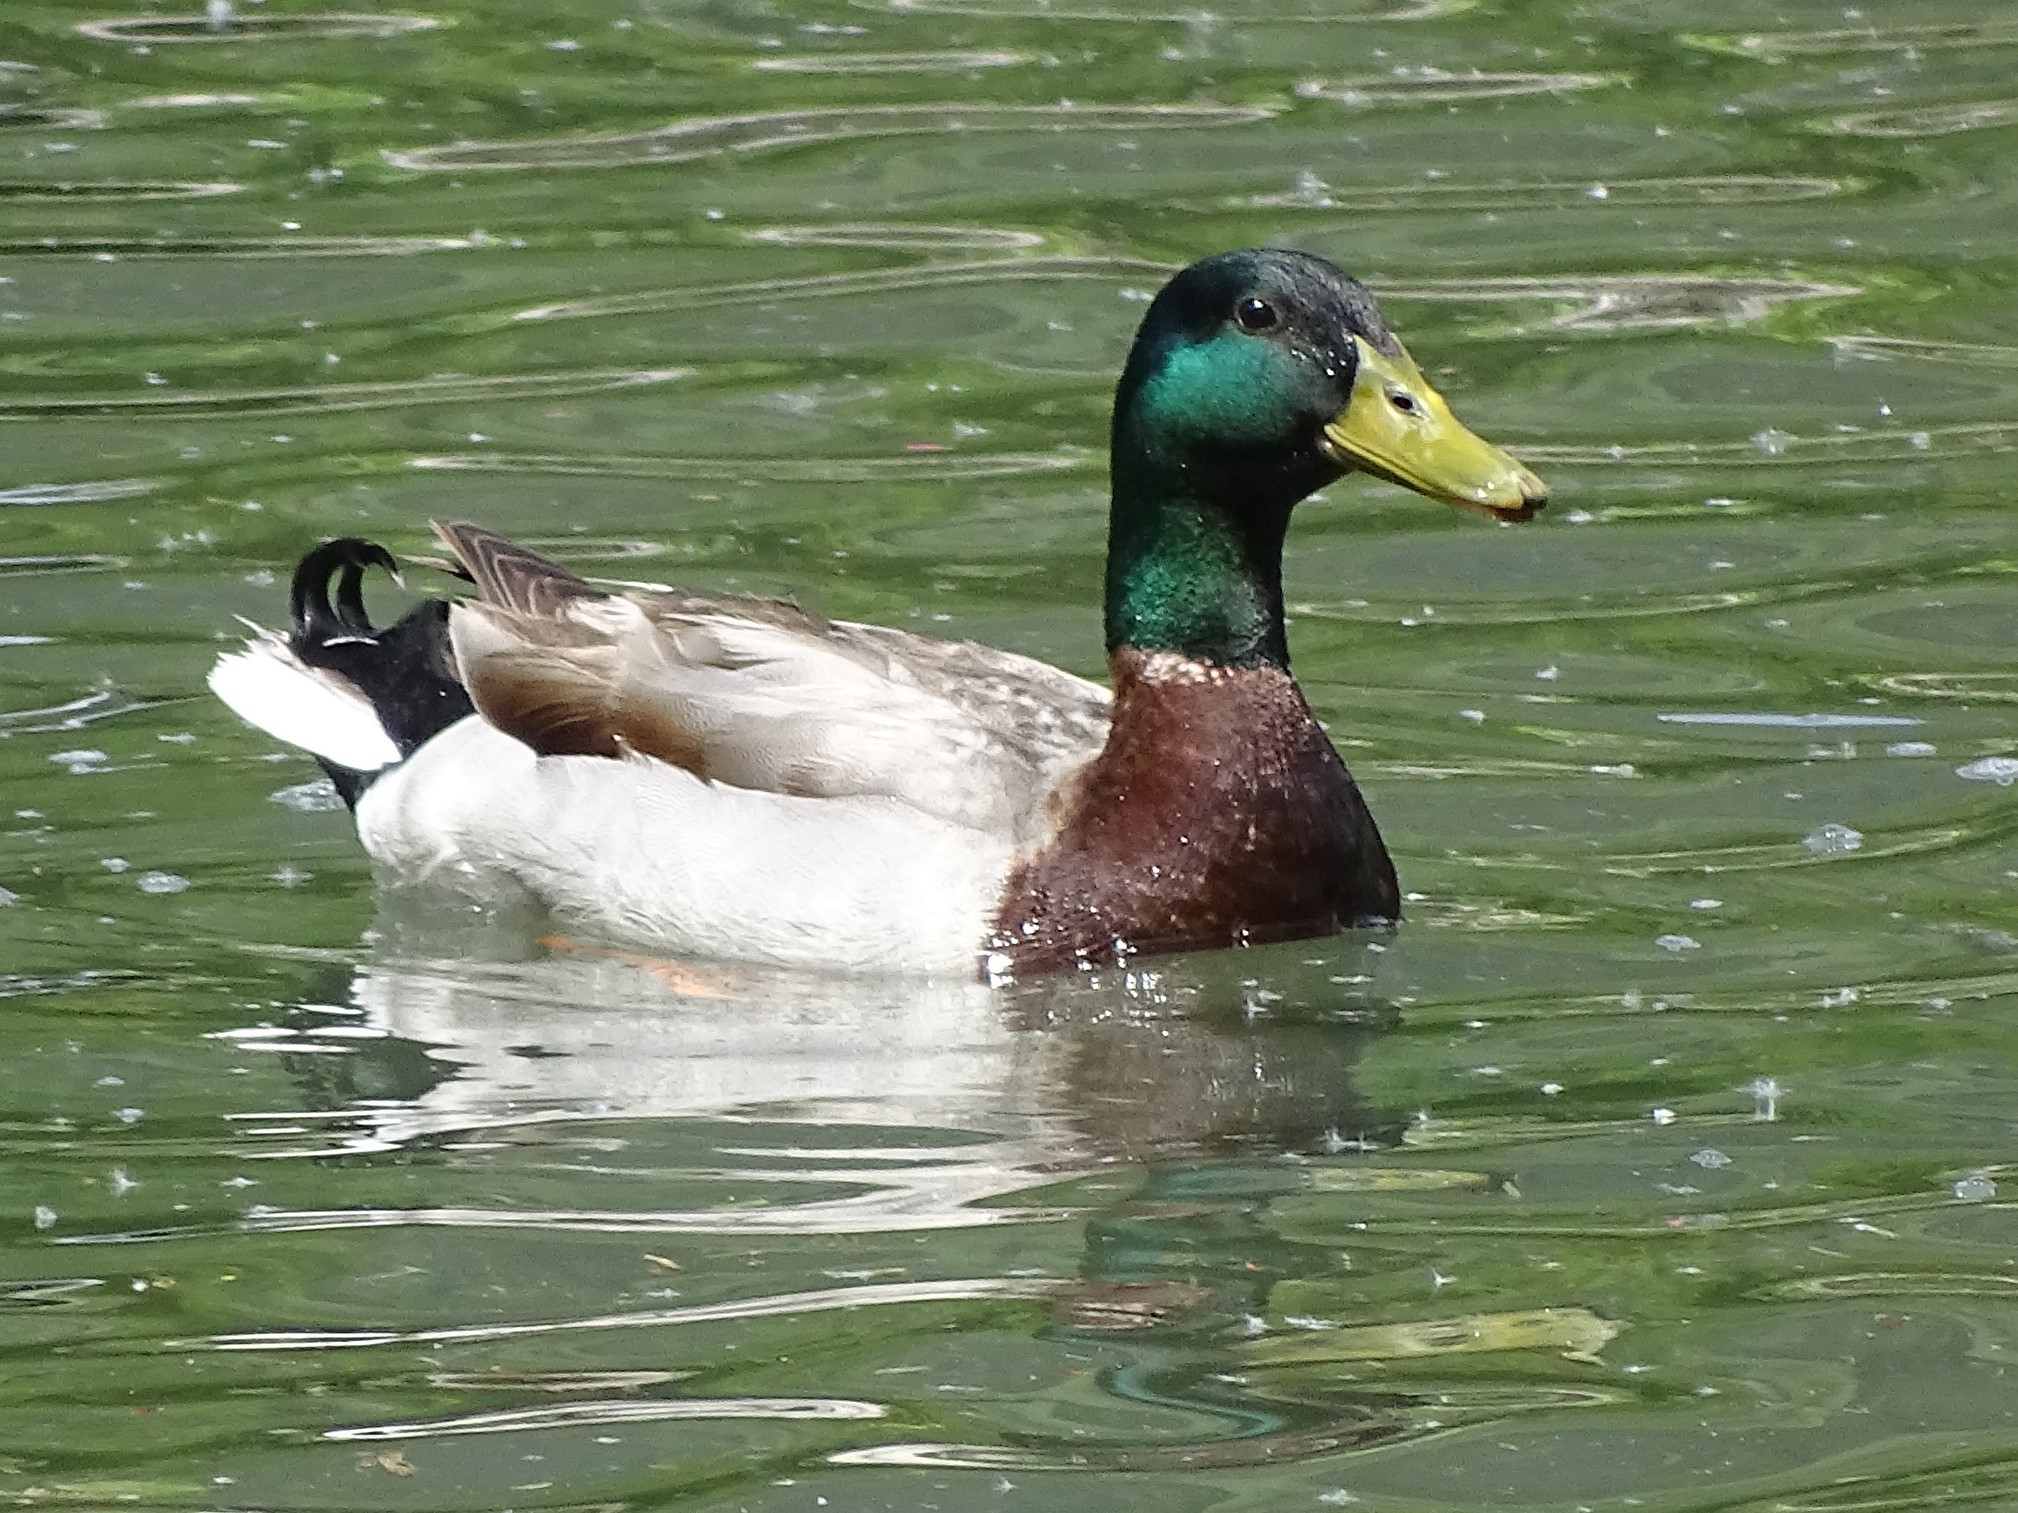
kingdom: Animalia
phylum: Chordata
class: Aves
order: Anseriformes
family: Anatidae
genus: Anas
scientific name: Anas platyrhynchos
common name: Mallard
